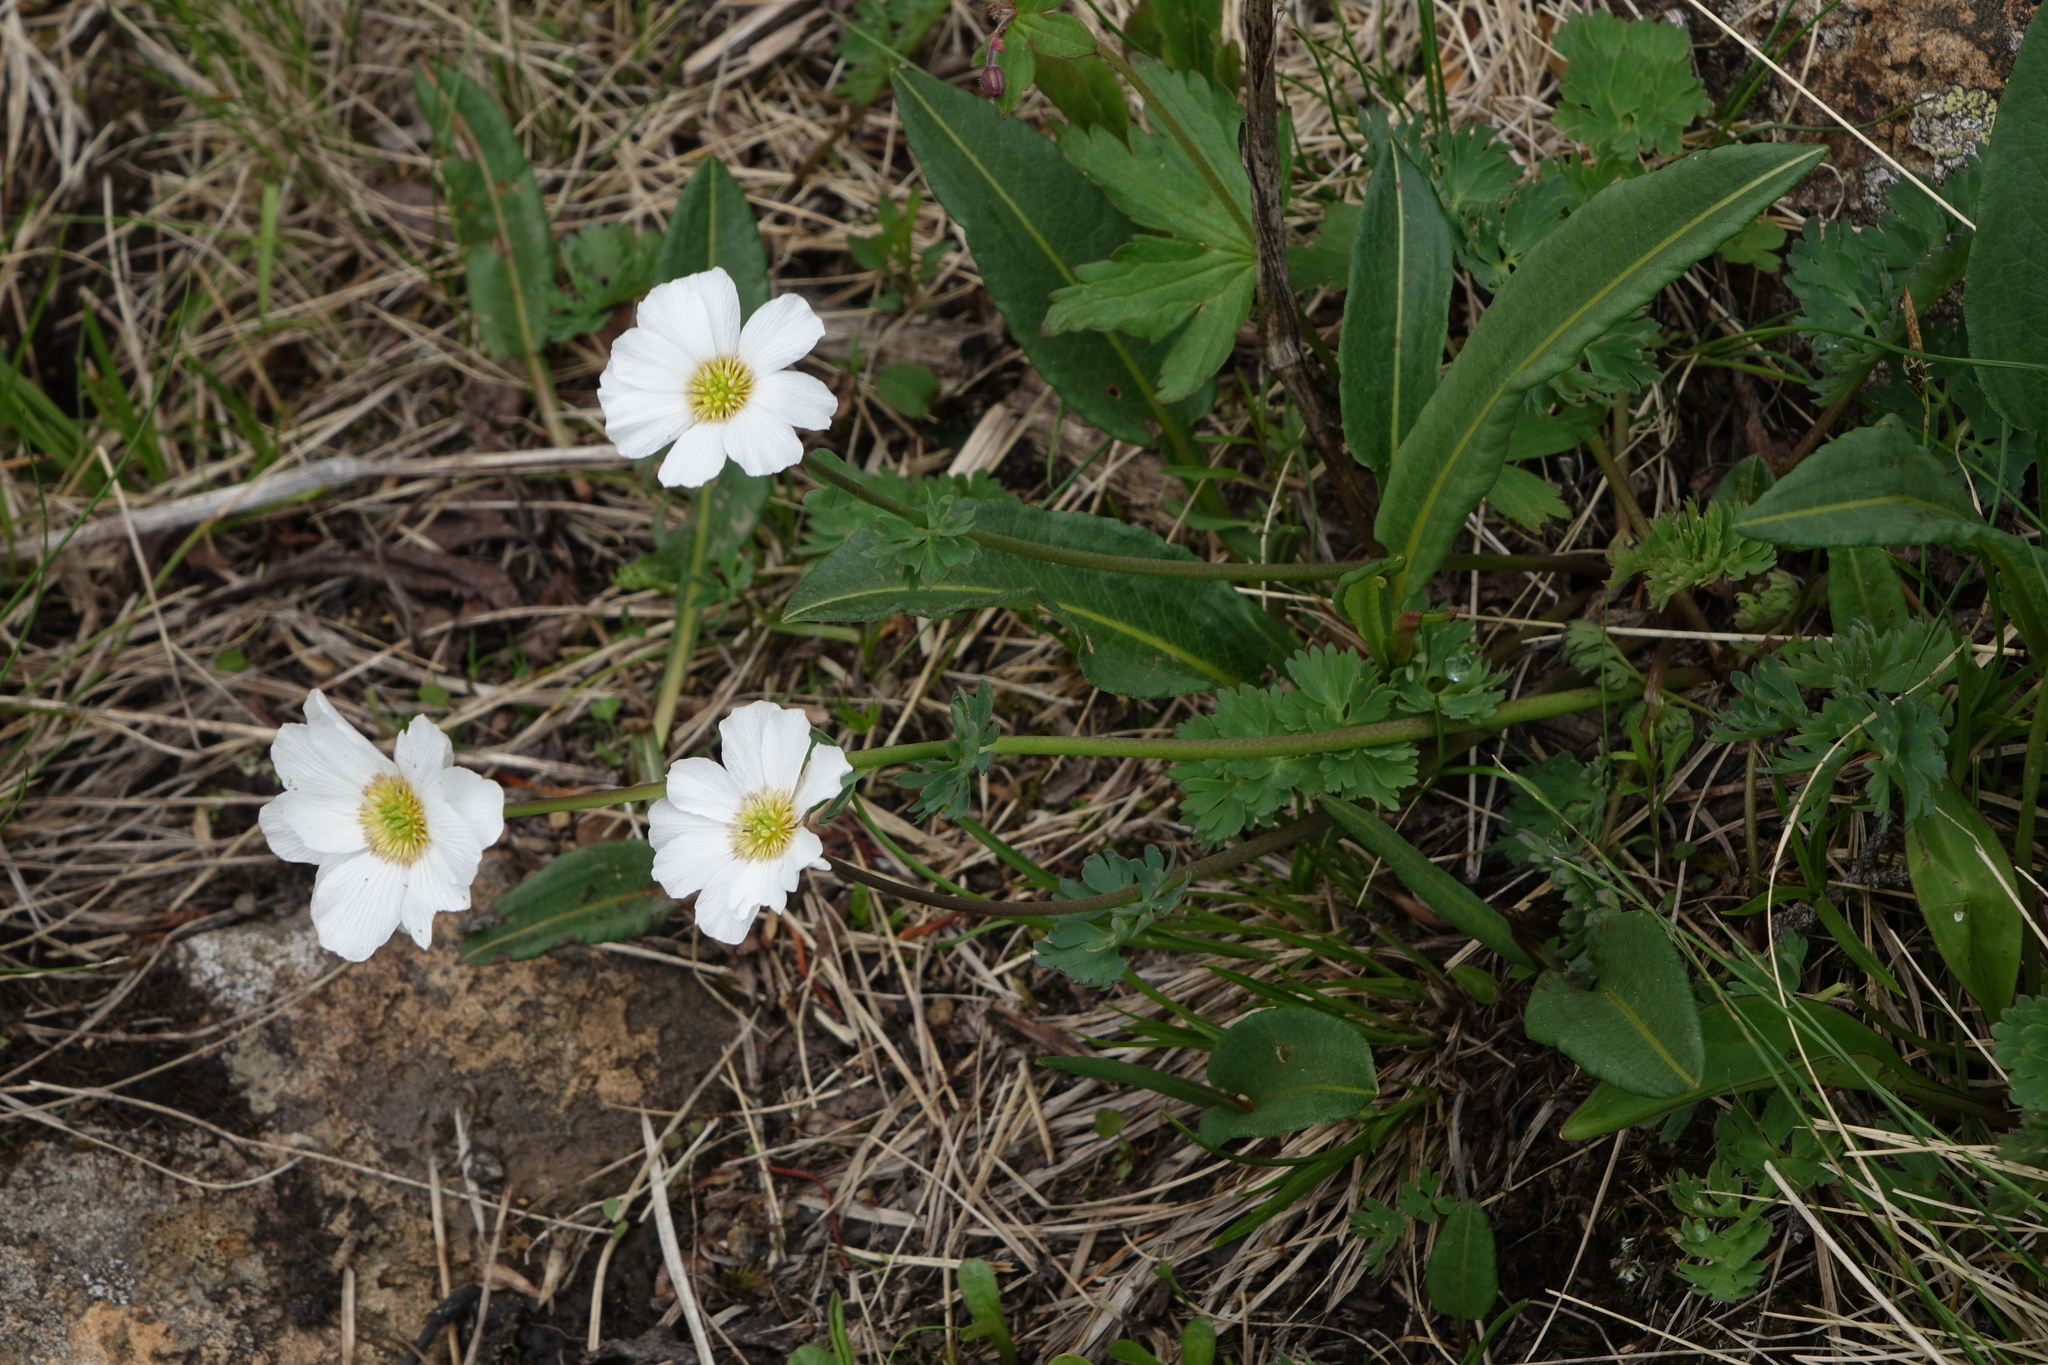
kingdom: Plantae
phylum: Tracheophyta
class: Magnoliopsida
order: Ranunculales
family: Ranunculaceae
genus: Callianthemum
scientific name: Callianthemum sajanense
